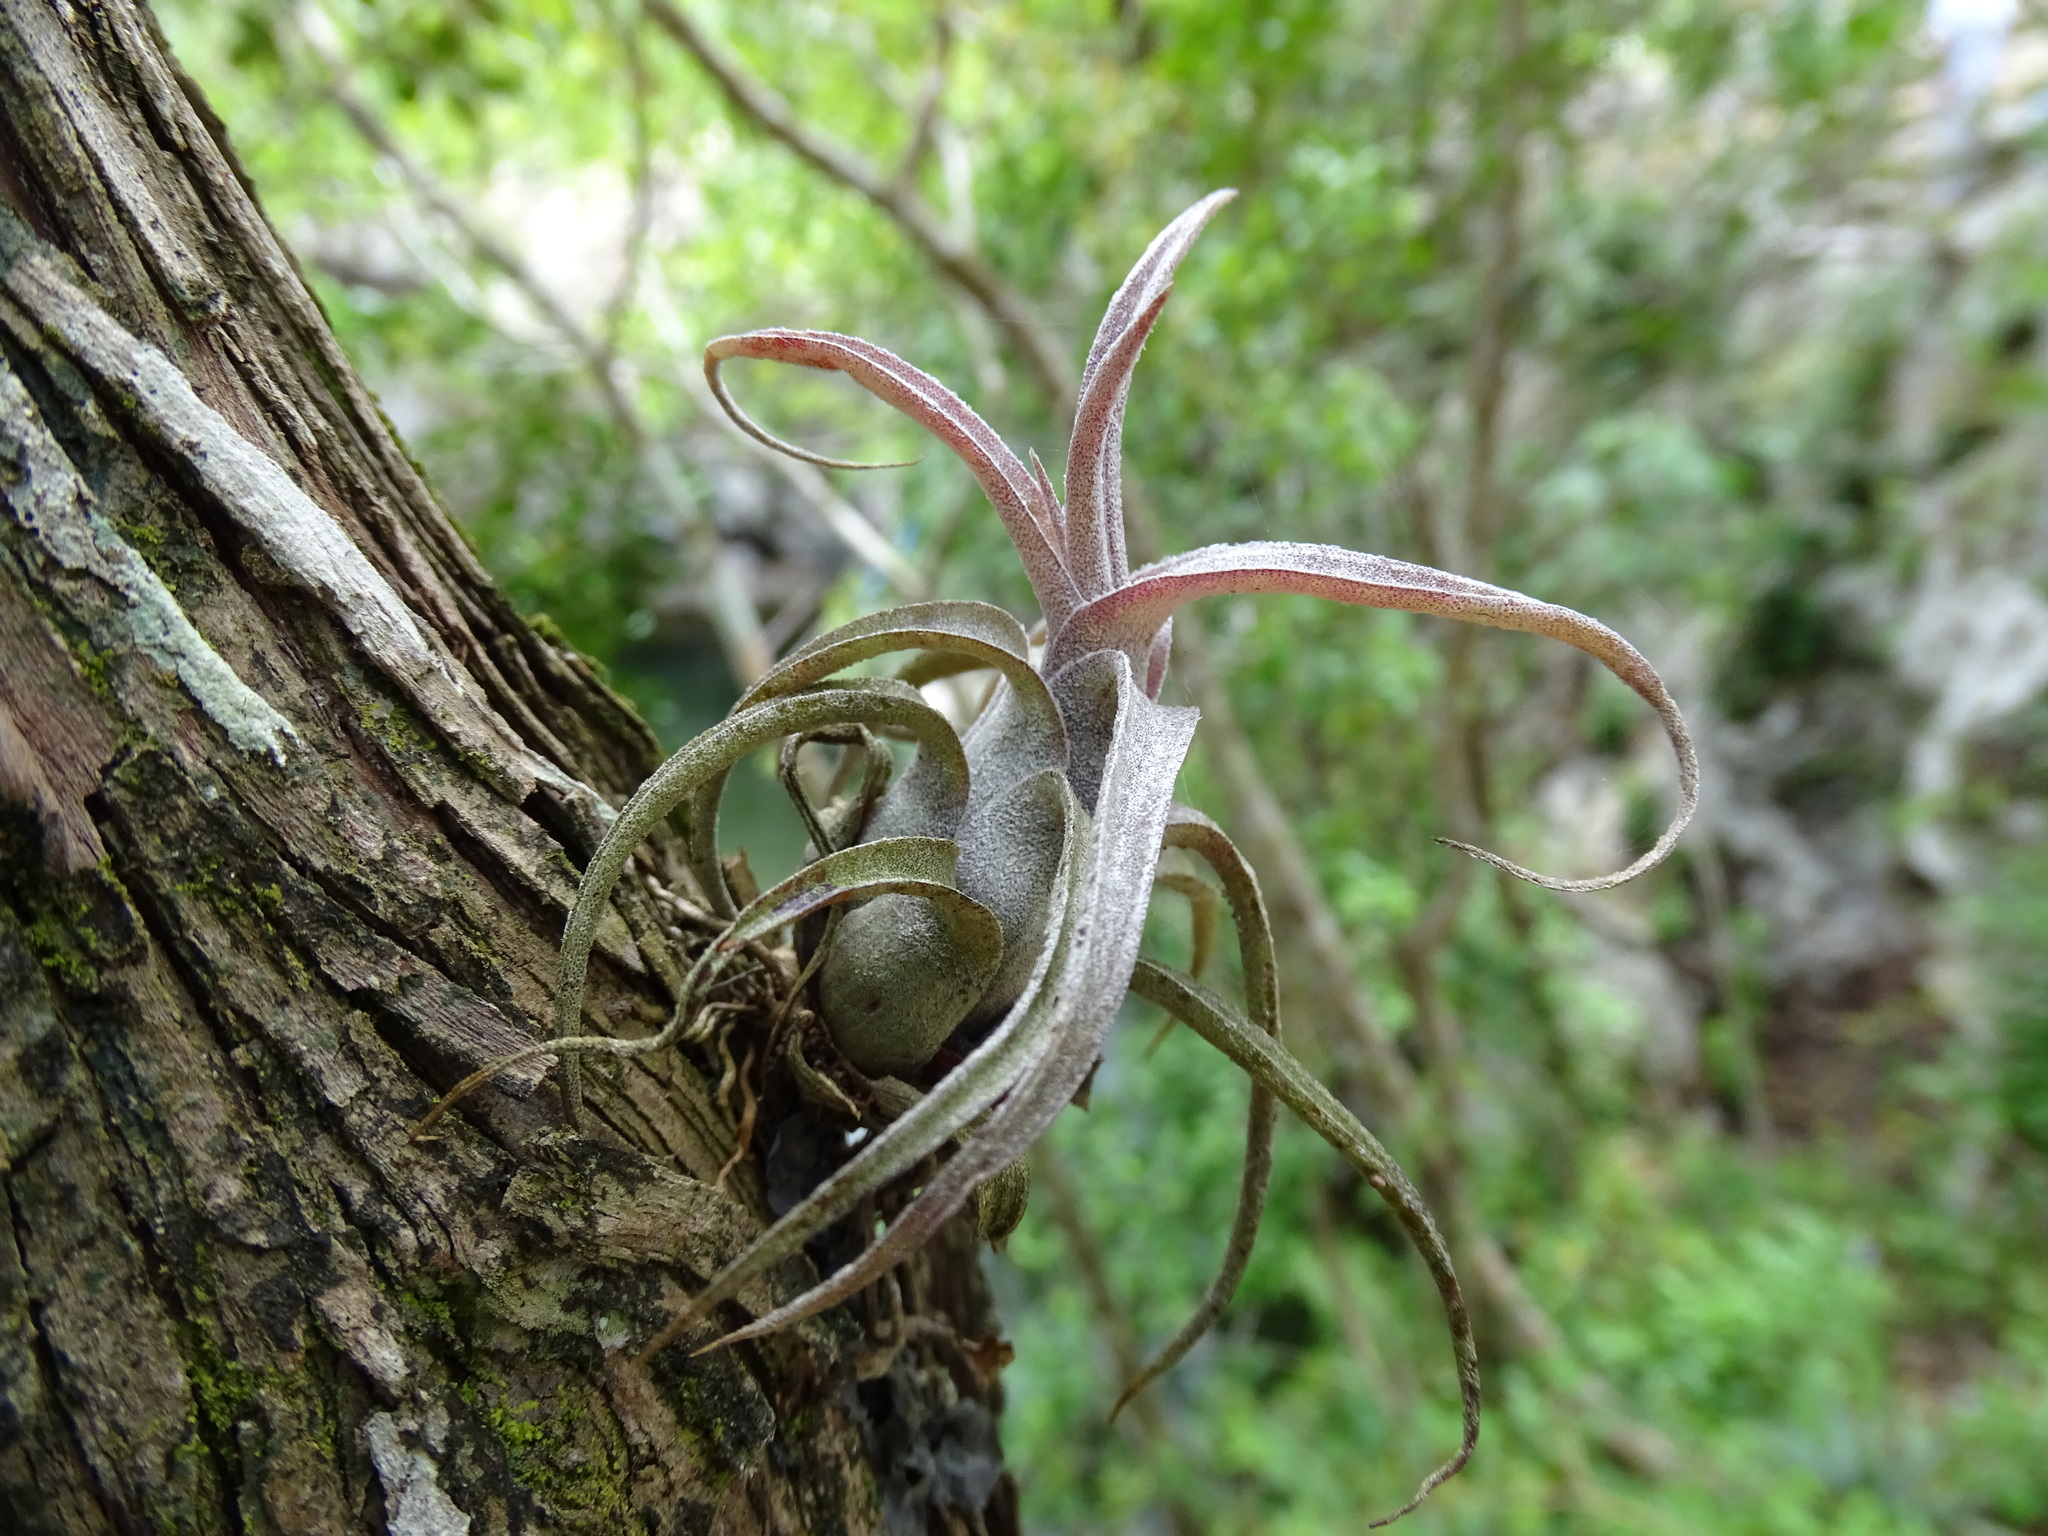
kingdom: Plantae
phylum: Tracheophyta
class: Liliopsida
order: Poales
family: Bromeliaceae
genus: Tillandsia
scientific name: Tillandsia streptophylla
